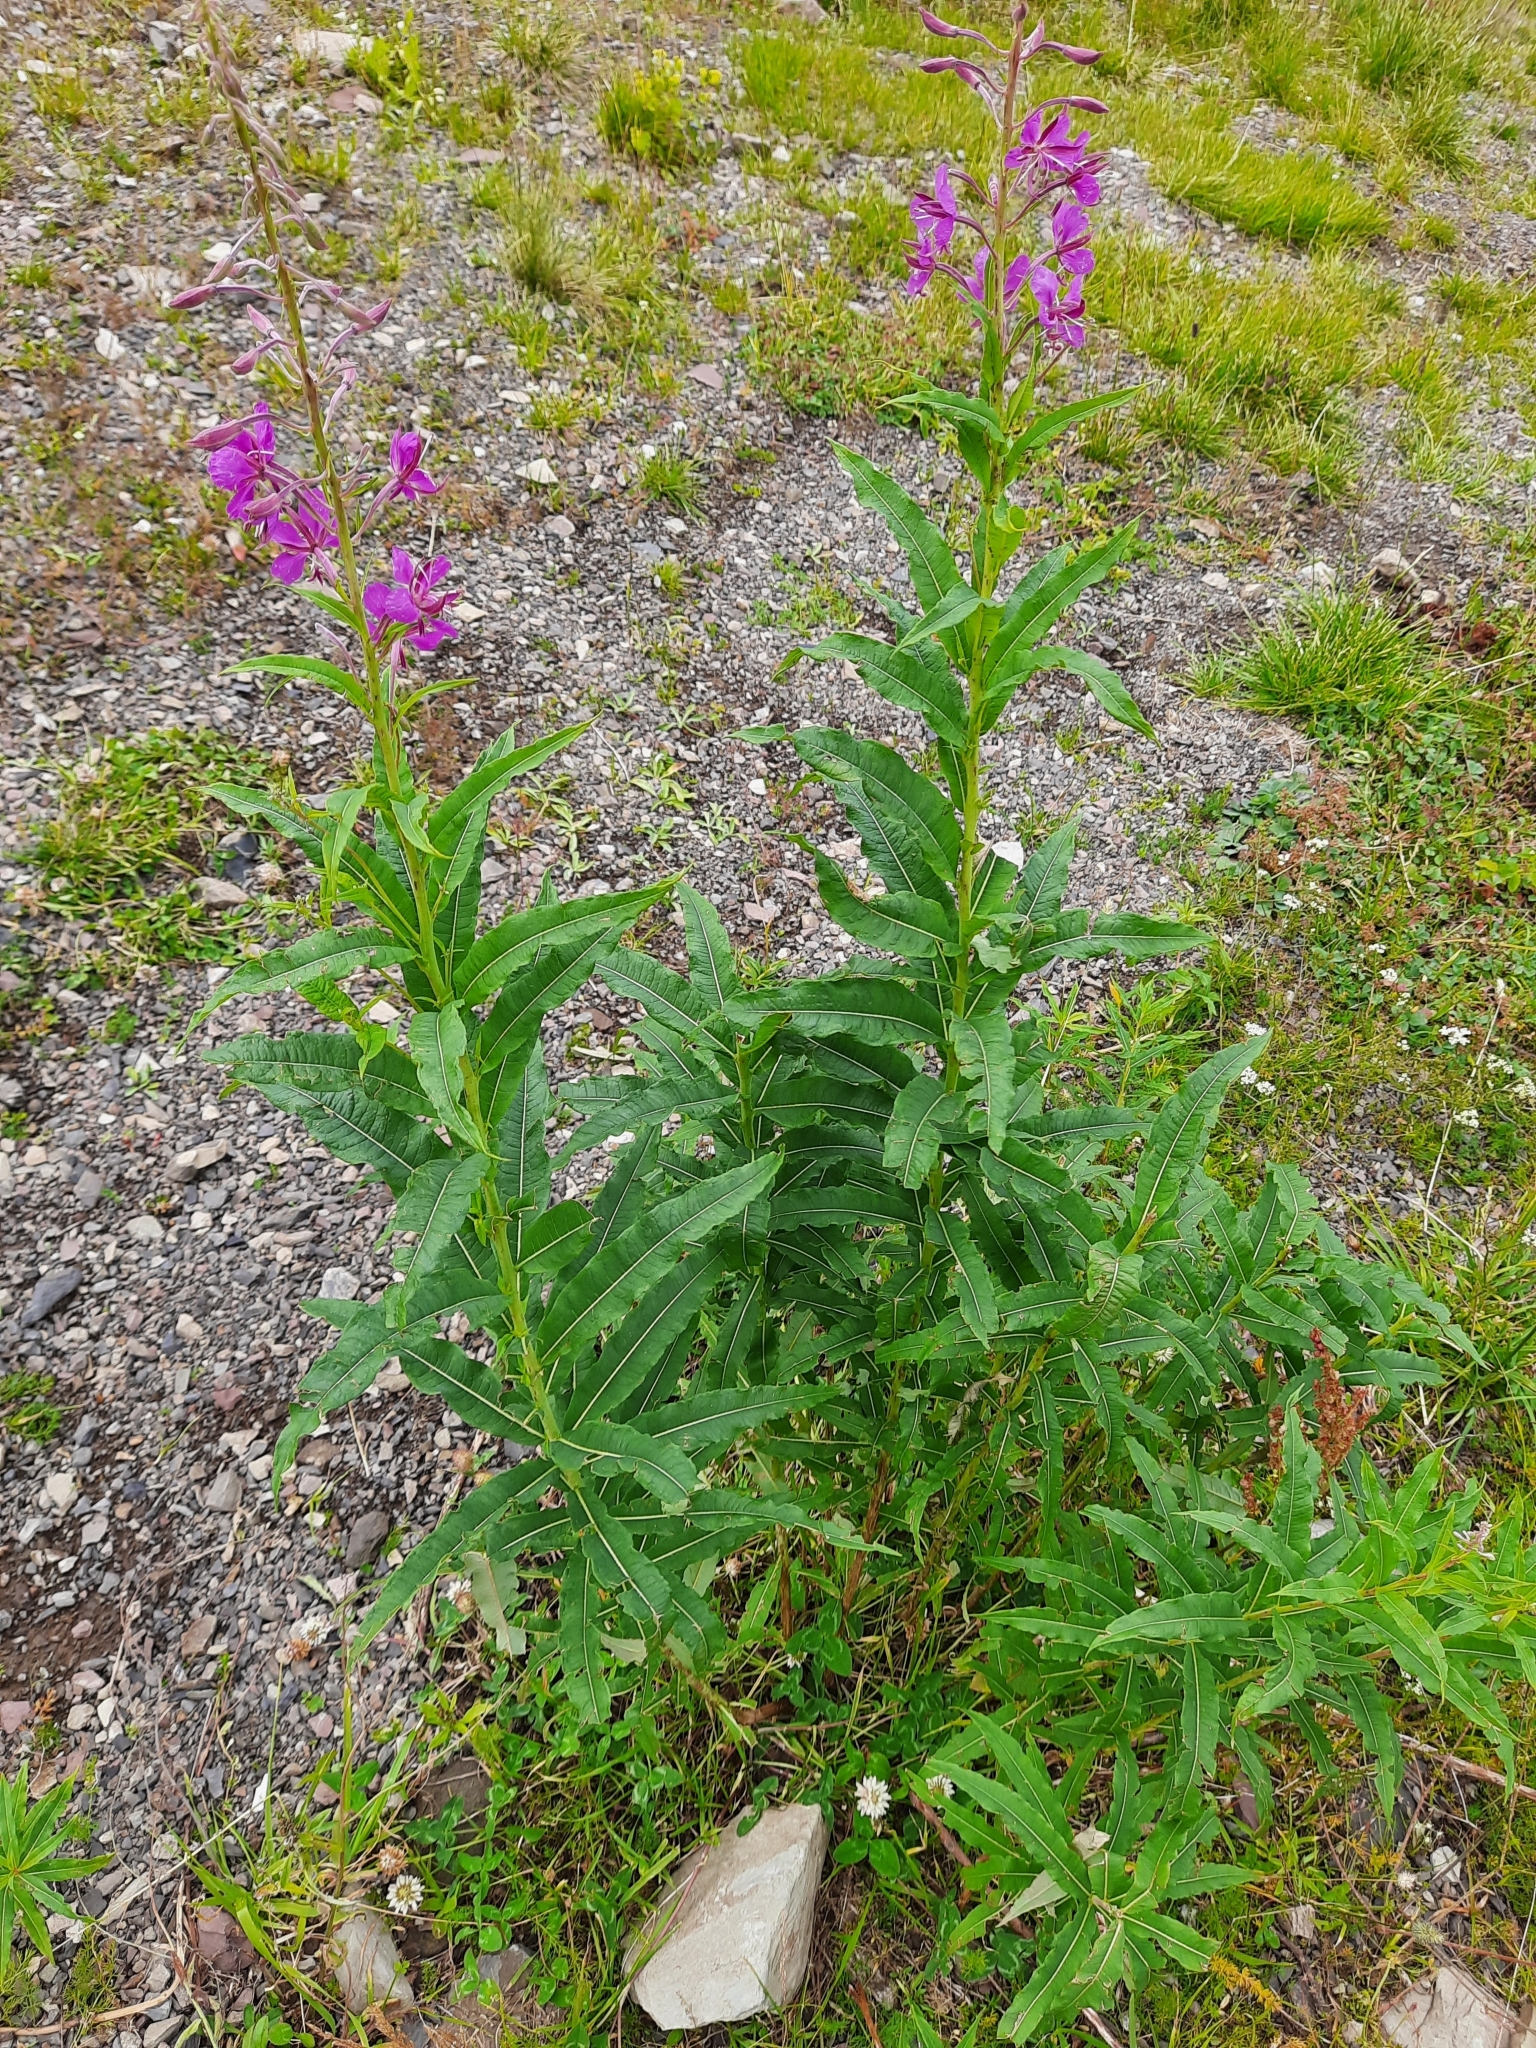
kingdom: Plantae
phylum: Tracheophyta
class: Magnoliopsida
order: Myrtales
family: Onagraceae
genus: Chamaenerion
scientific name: Chamaenerion angustifolium
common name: Fireweed
